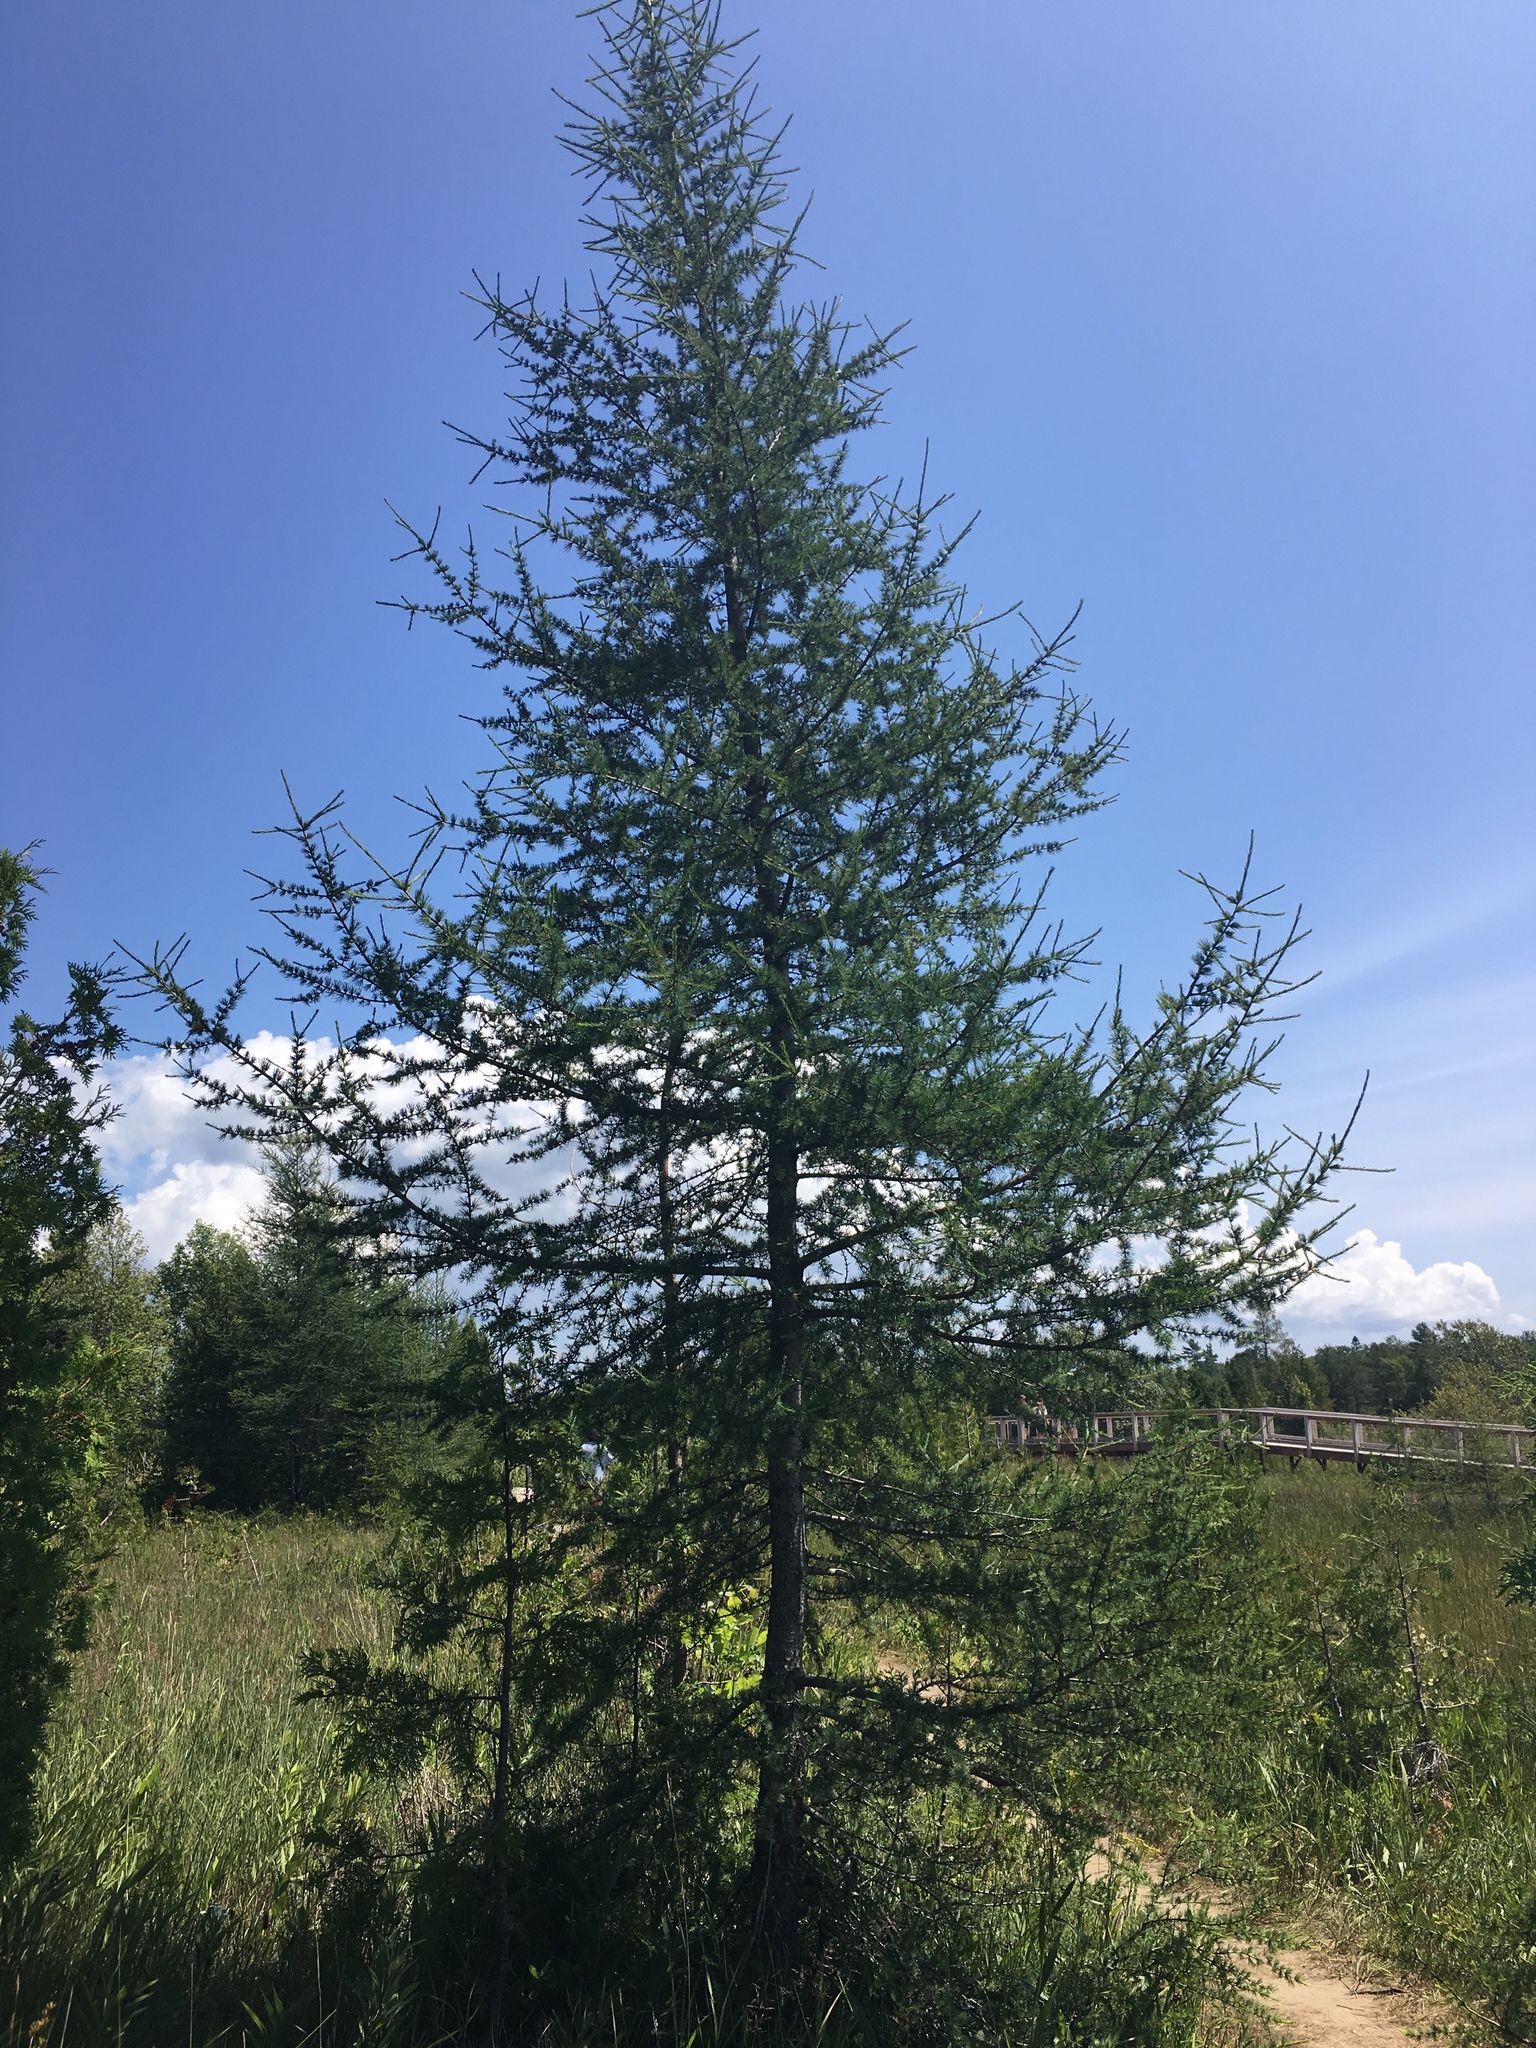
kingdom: Plantae
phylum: Tracheophyta
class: Pinopsida
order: Pinales
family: Pinaceae
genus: Larix
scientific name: Larix laricina
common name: American larch
